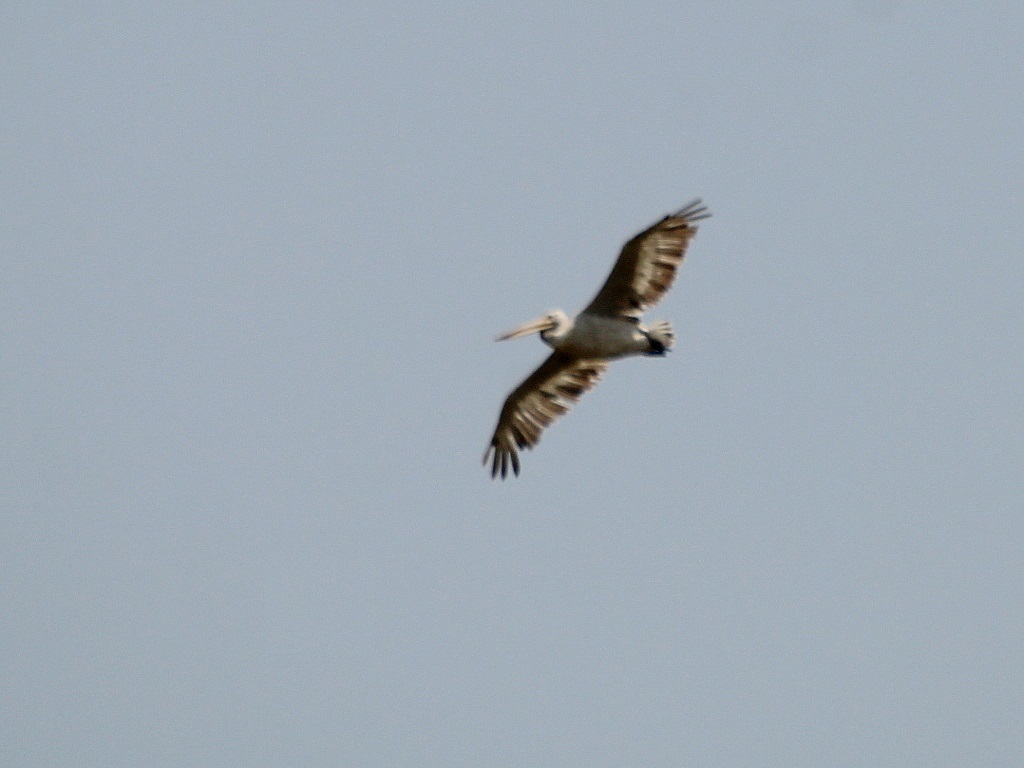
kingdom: Animalia
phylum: Chordata
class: Aves
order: Pelecaniformes
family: Pelecanidae
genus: Pelecanus
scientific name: Pelecanus crispus
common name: Dalmatian pelican
